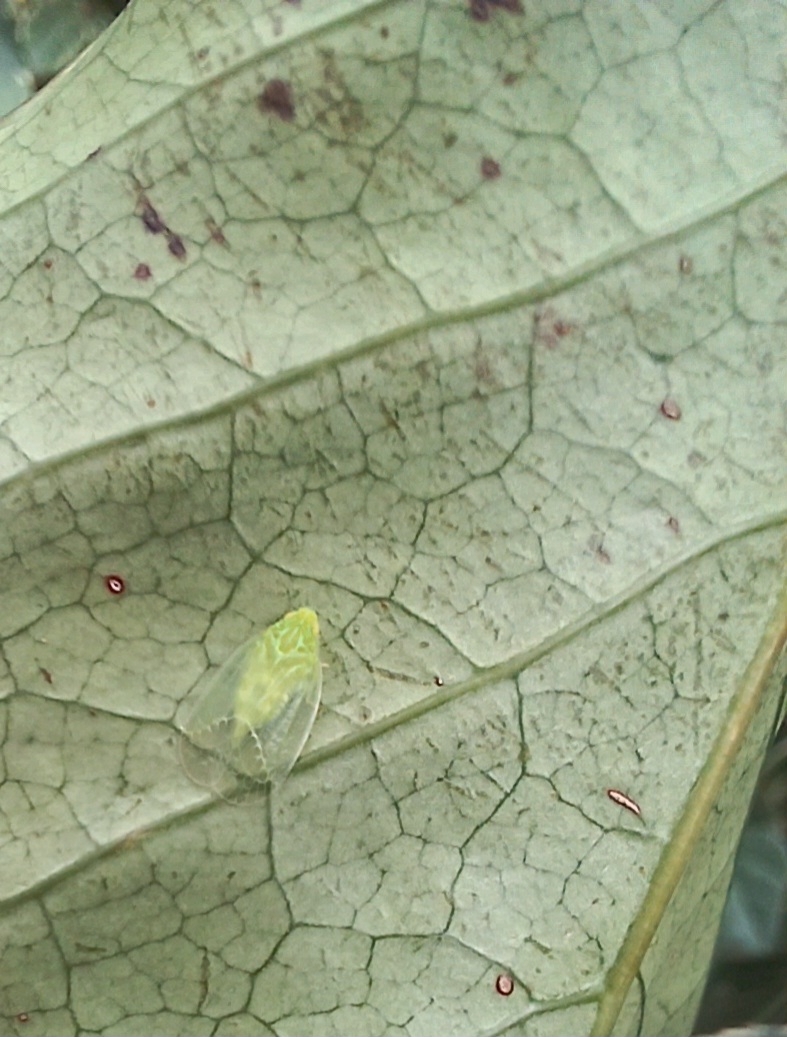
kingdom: Animalia
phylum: Arthropoda
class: Insecta
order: Hemiptera
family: Tropiduchidae
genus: Kallitaxila
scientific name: Kallitaxila granulata
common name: Planthopper
